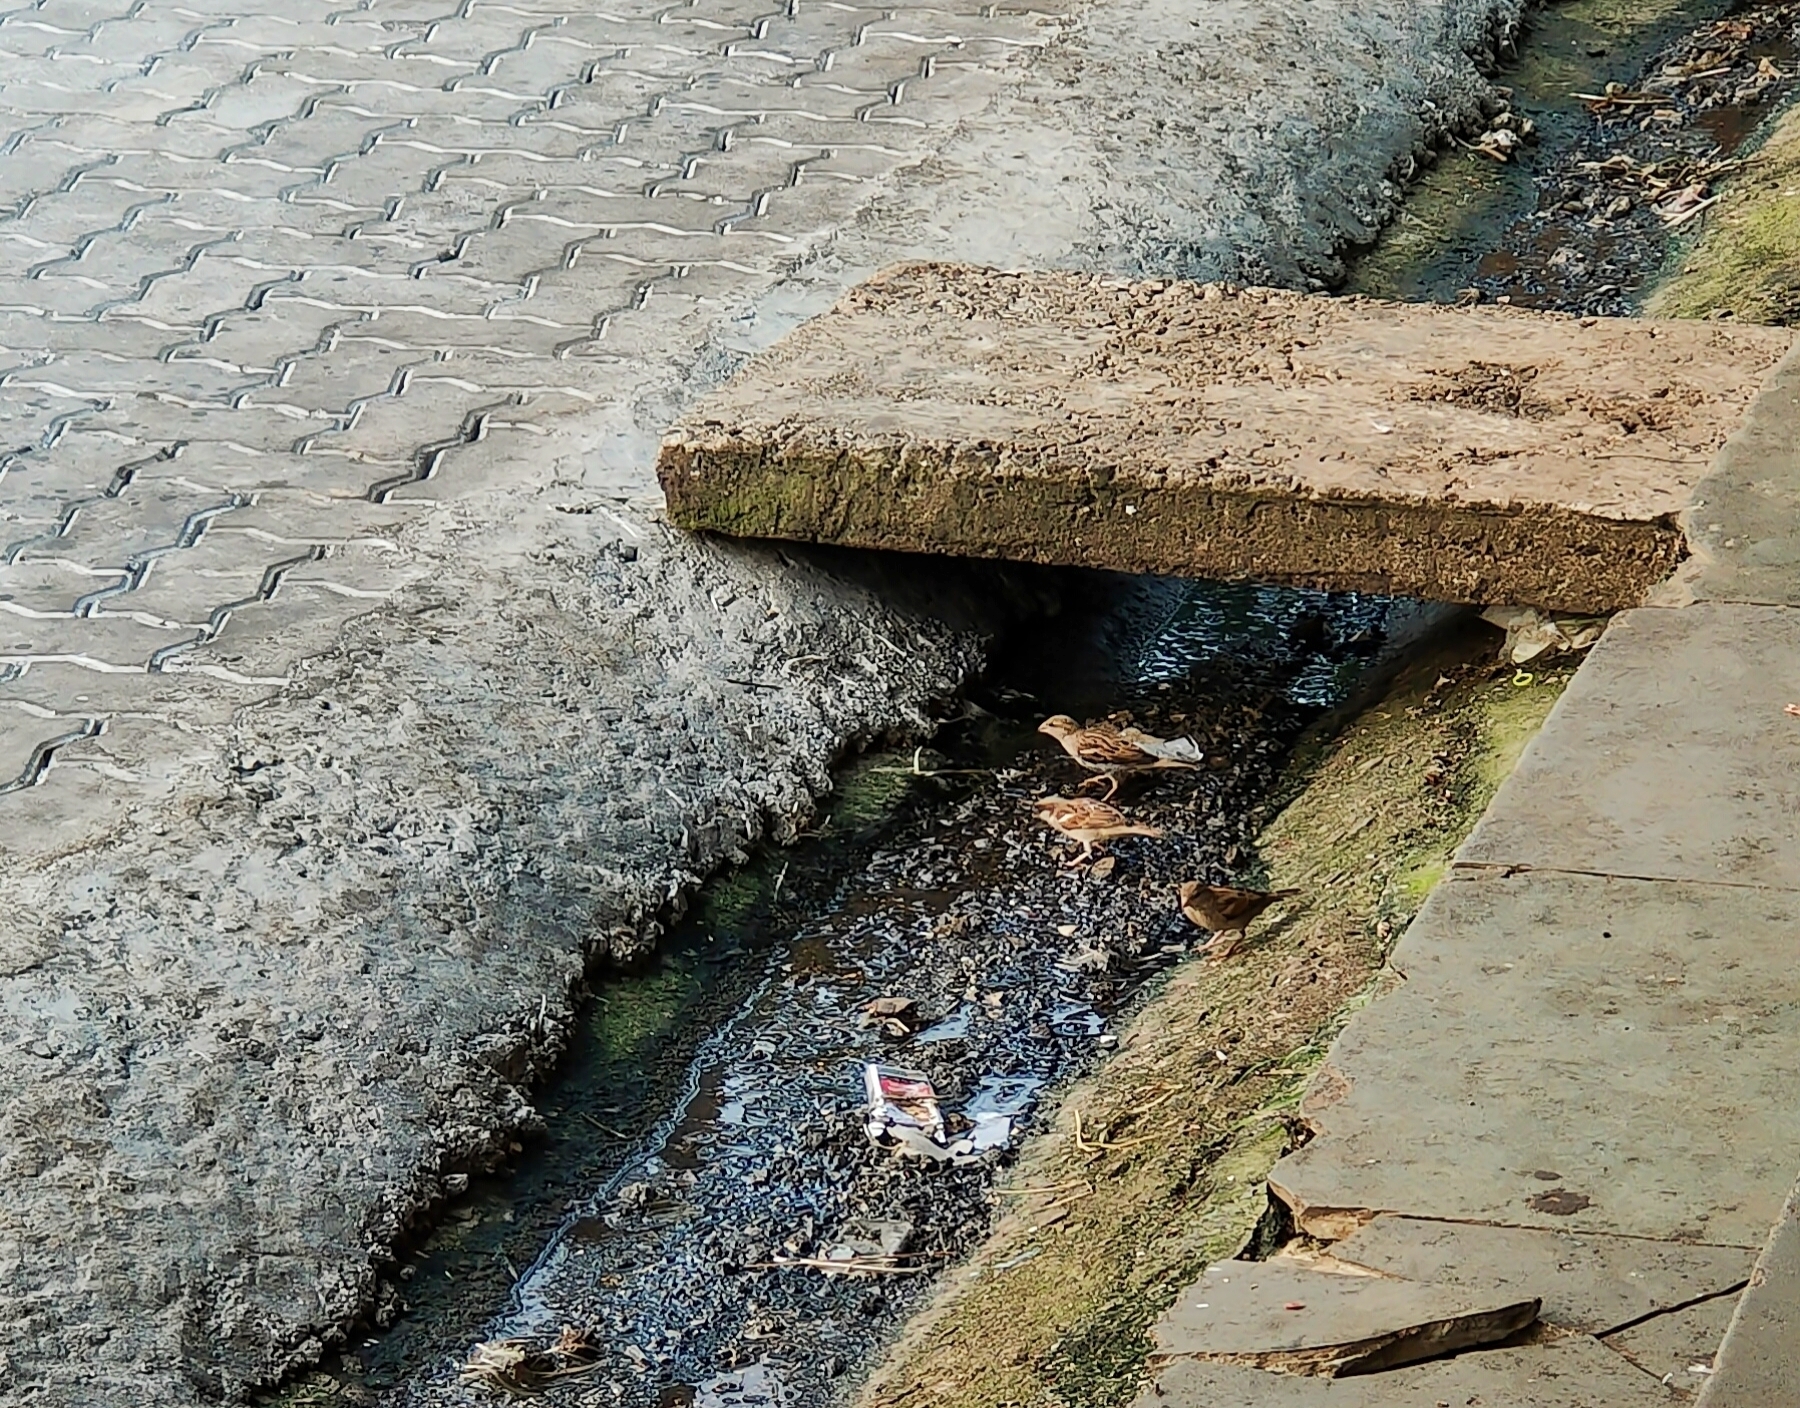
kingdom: Animalia
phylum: Chordata
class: Aves
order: Passeriformes
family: Passeridae
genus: Passer
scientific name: Passer domesticus
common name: House sparrow
